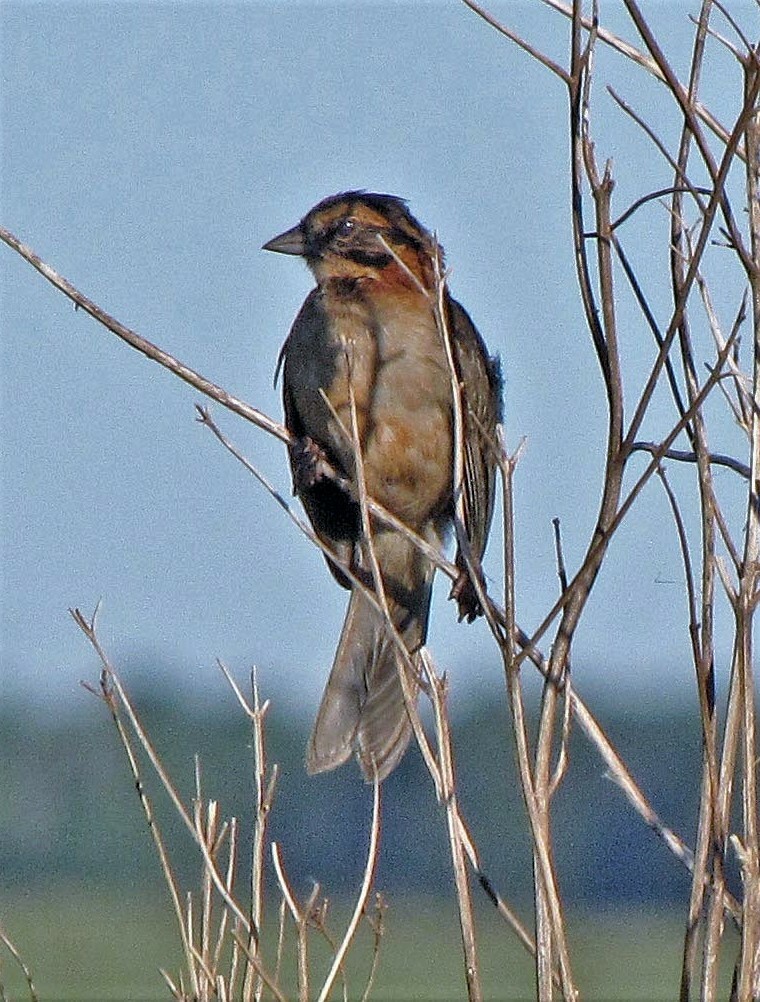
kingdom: Animalia
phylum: Chordata
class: Aves
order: Passeriformes
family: Passerellidae
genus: Zonotrichia
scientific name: Zonotrichia capensis
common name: Rufous-collared sparrow
